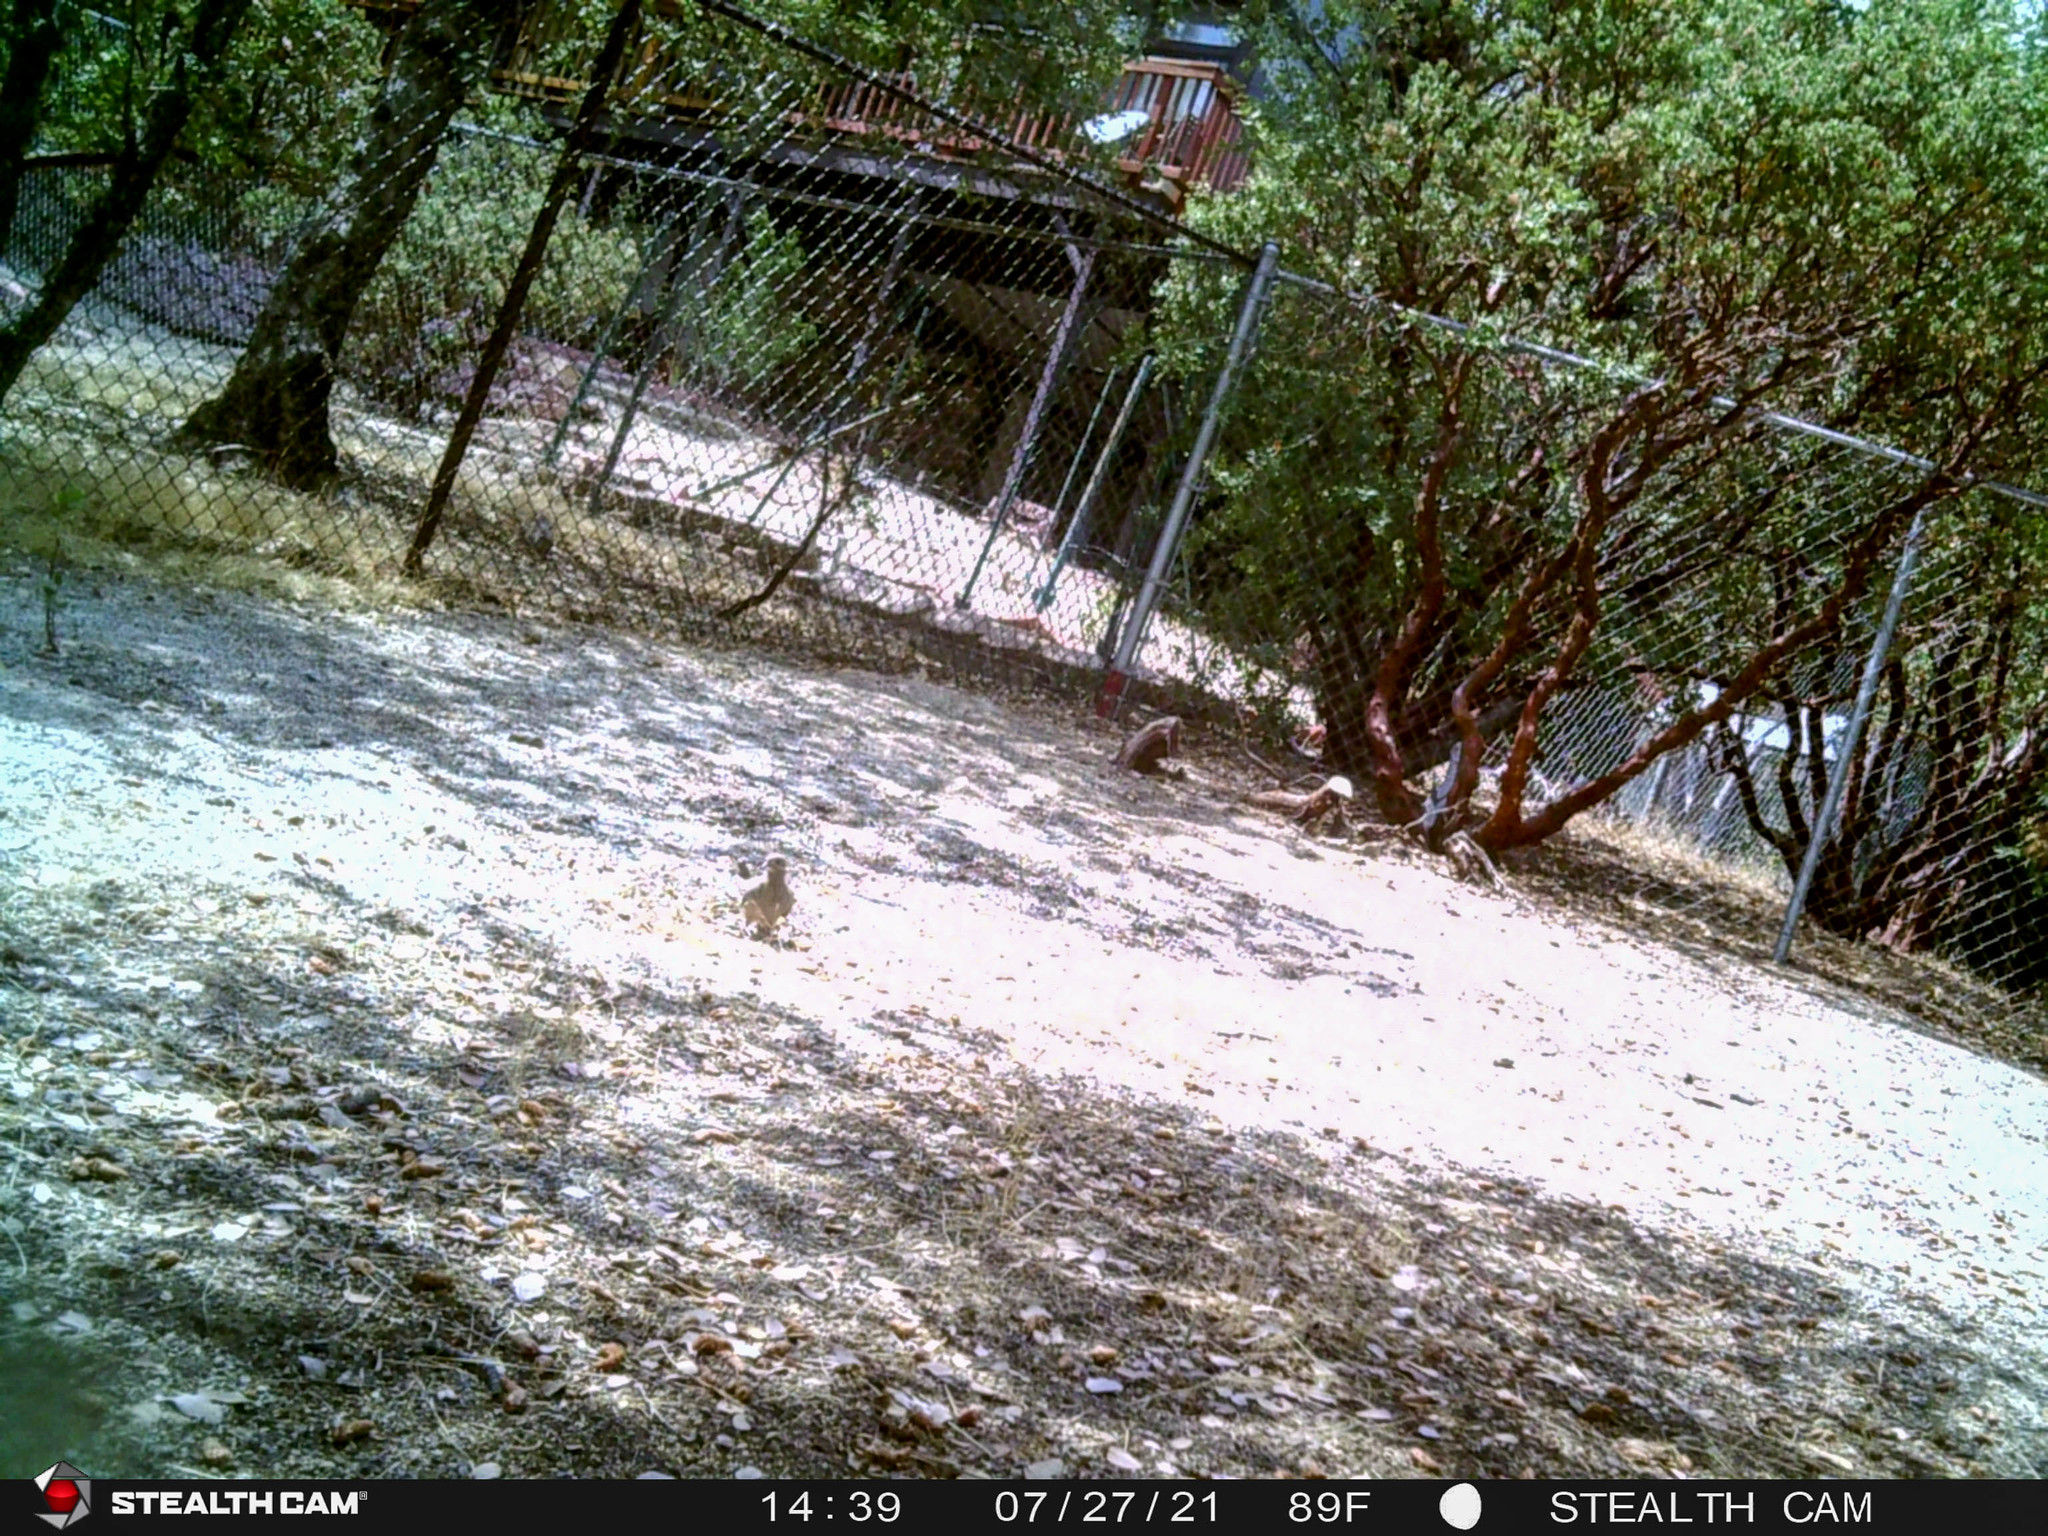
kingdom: Animalia
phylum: Chordata
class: Aves
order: Columbiformes
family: Columbidae
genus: Zenaida
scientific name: Zenaida macroura
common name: Mourning dove
